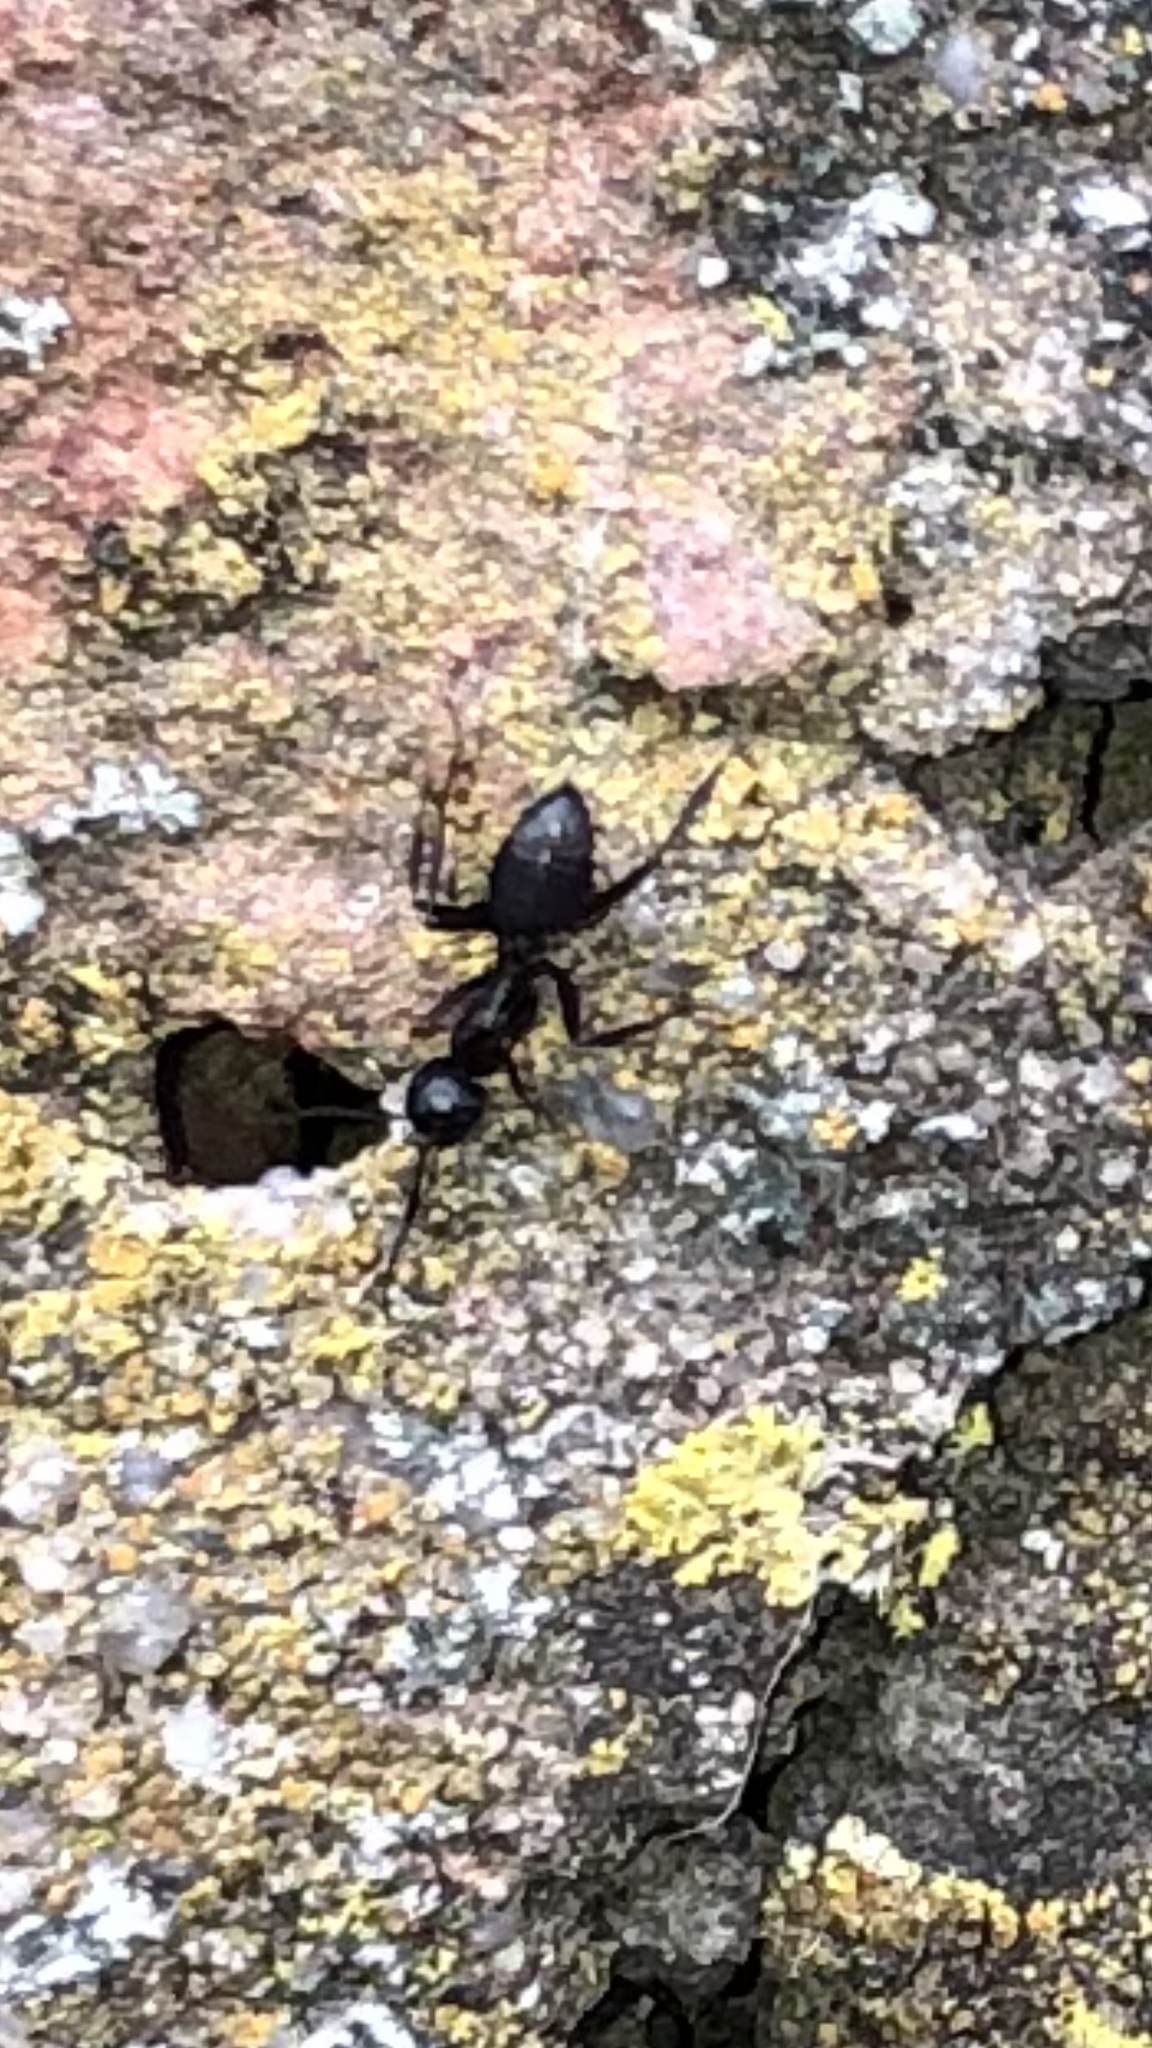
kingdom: Animalia
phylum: Arthropoda
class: Insecta
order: Hymenoptera
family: Formicidae
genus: Camponotus
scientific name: Camponotus pennsylvanicus
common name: Black carpenter ant
